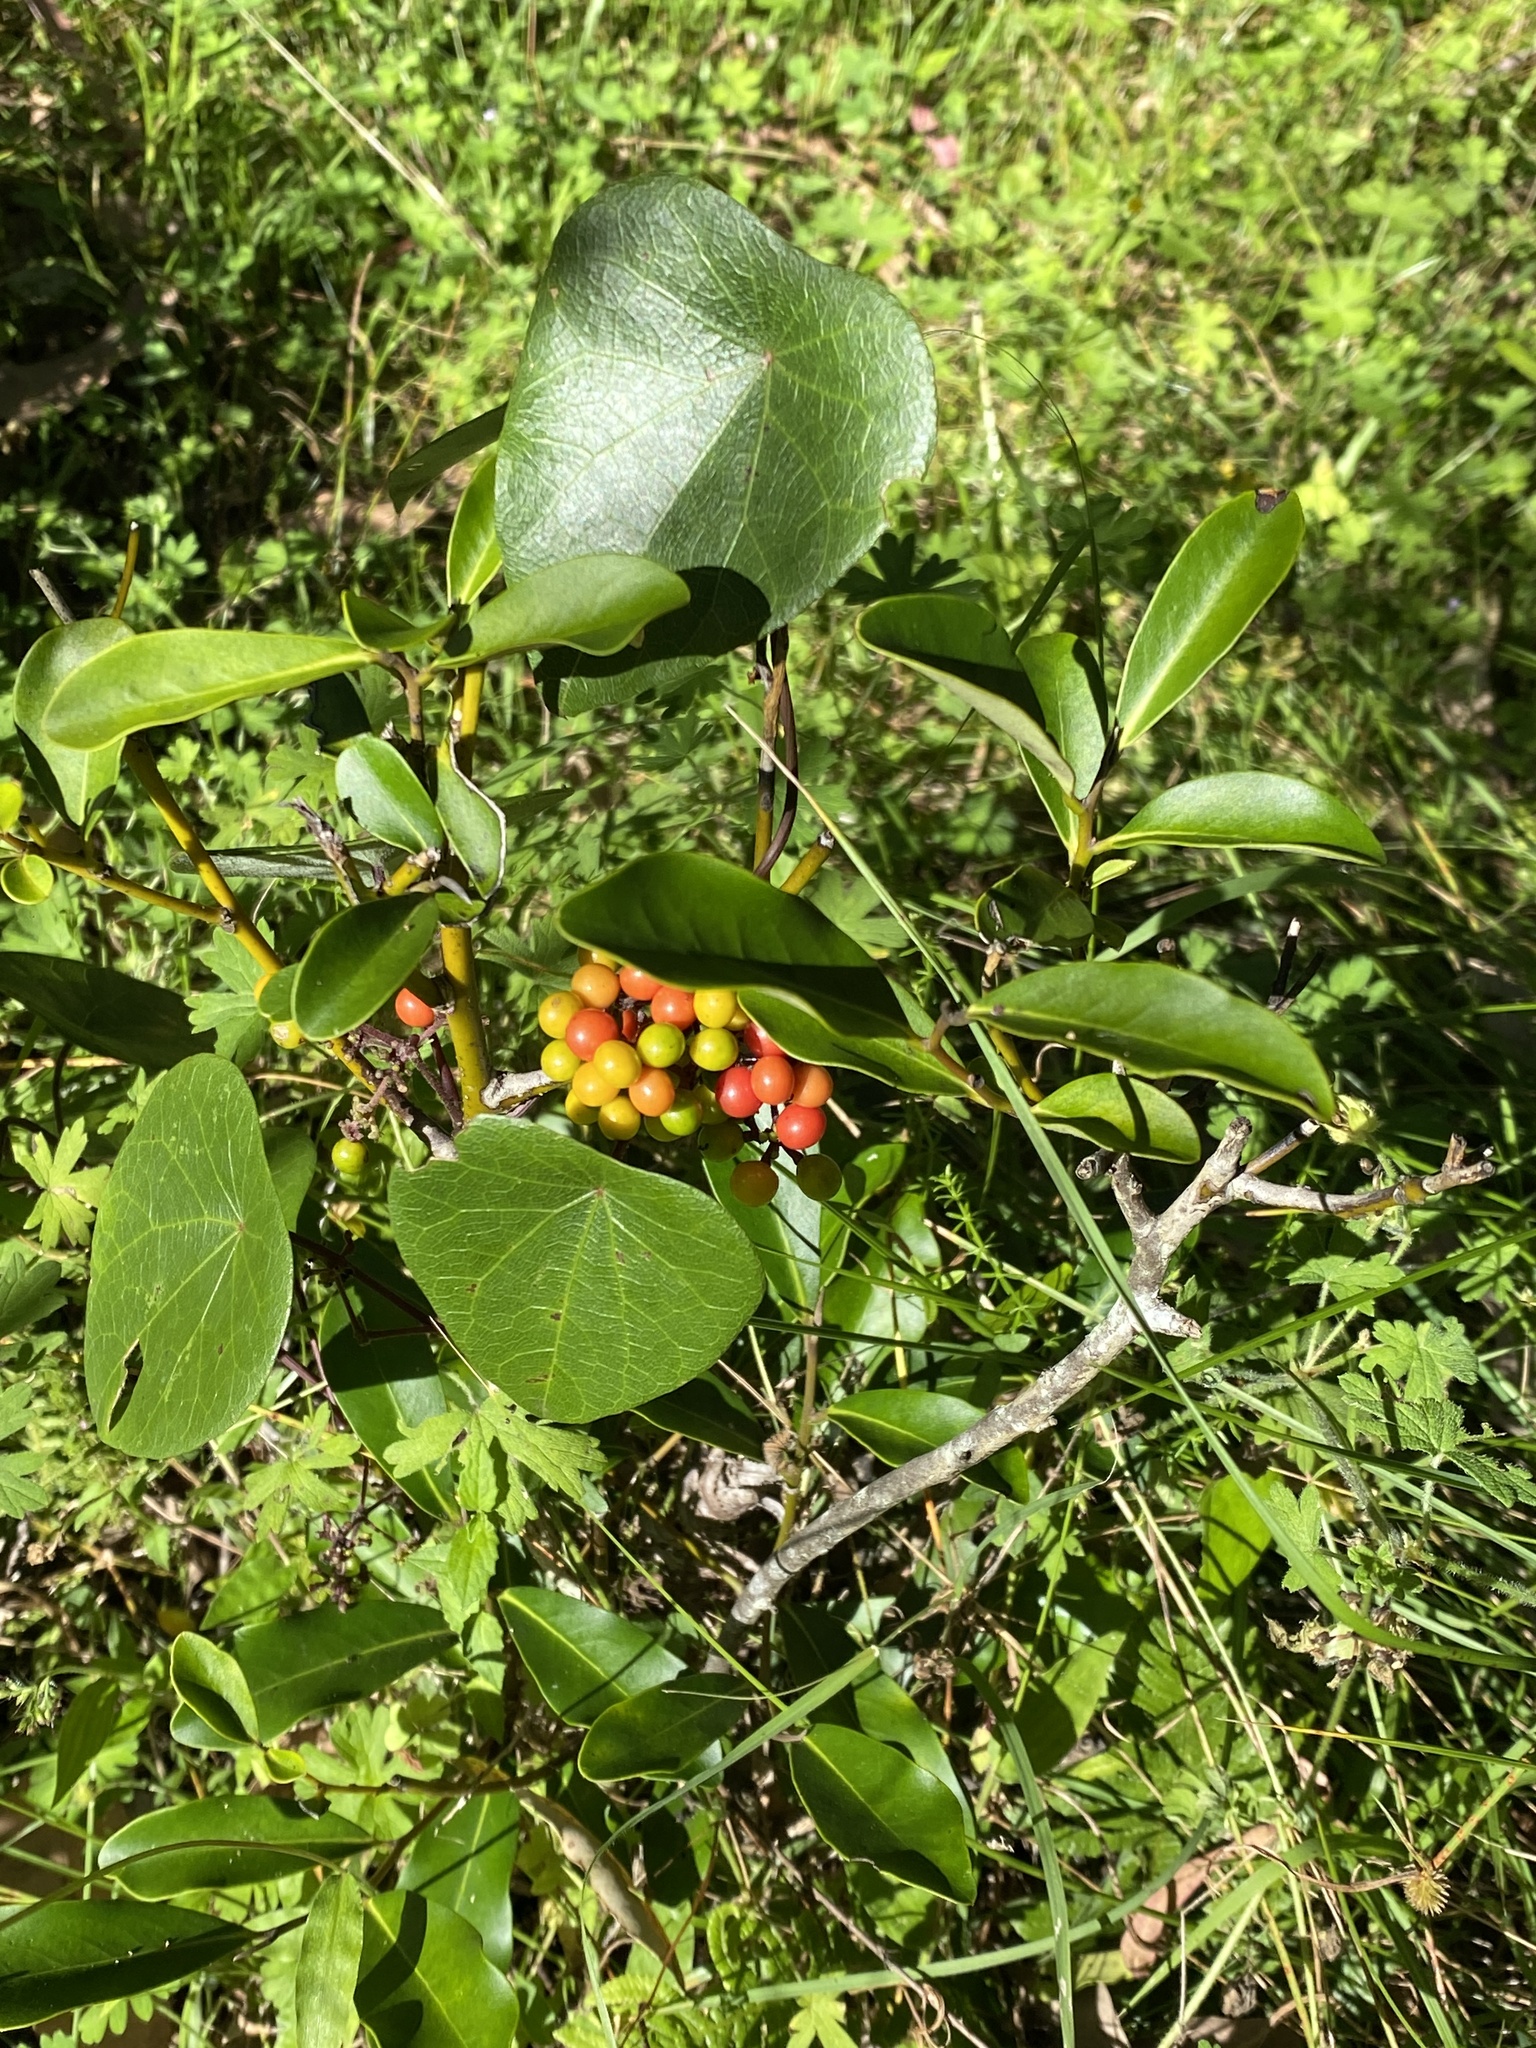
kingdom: Plantae
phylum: Tracheophyta
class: Magnoliopsida
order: Ranunculales
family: Menispermaceae
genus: Stephania
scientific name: Stephania japonica
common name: Snake vine
